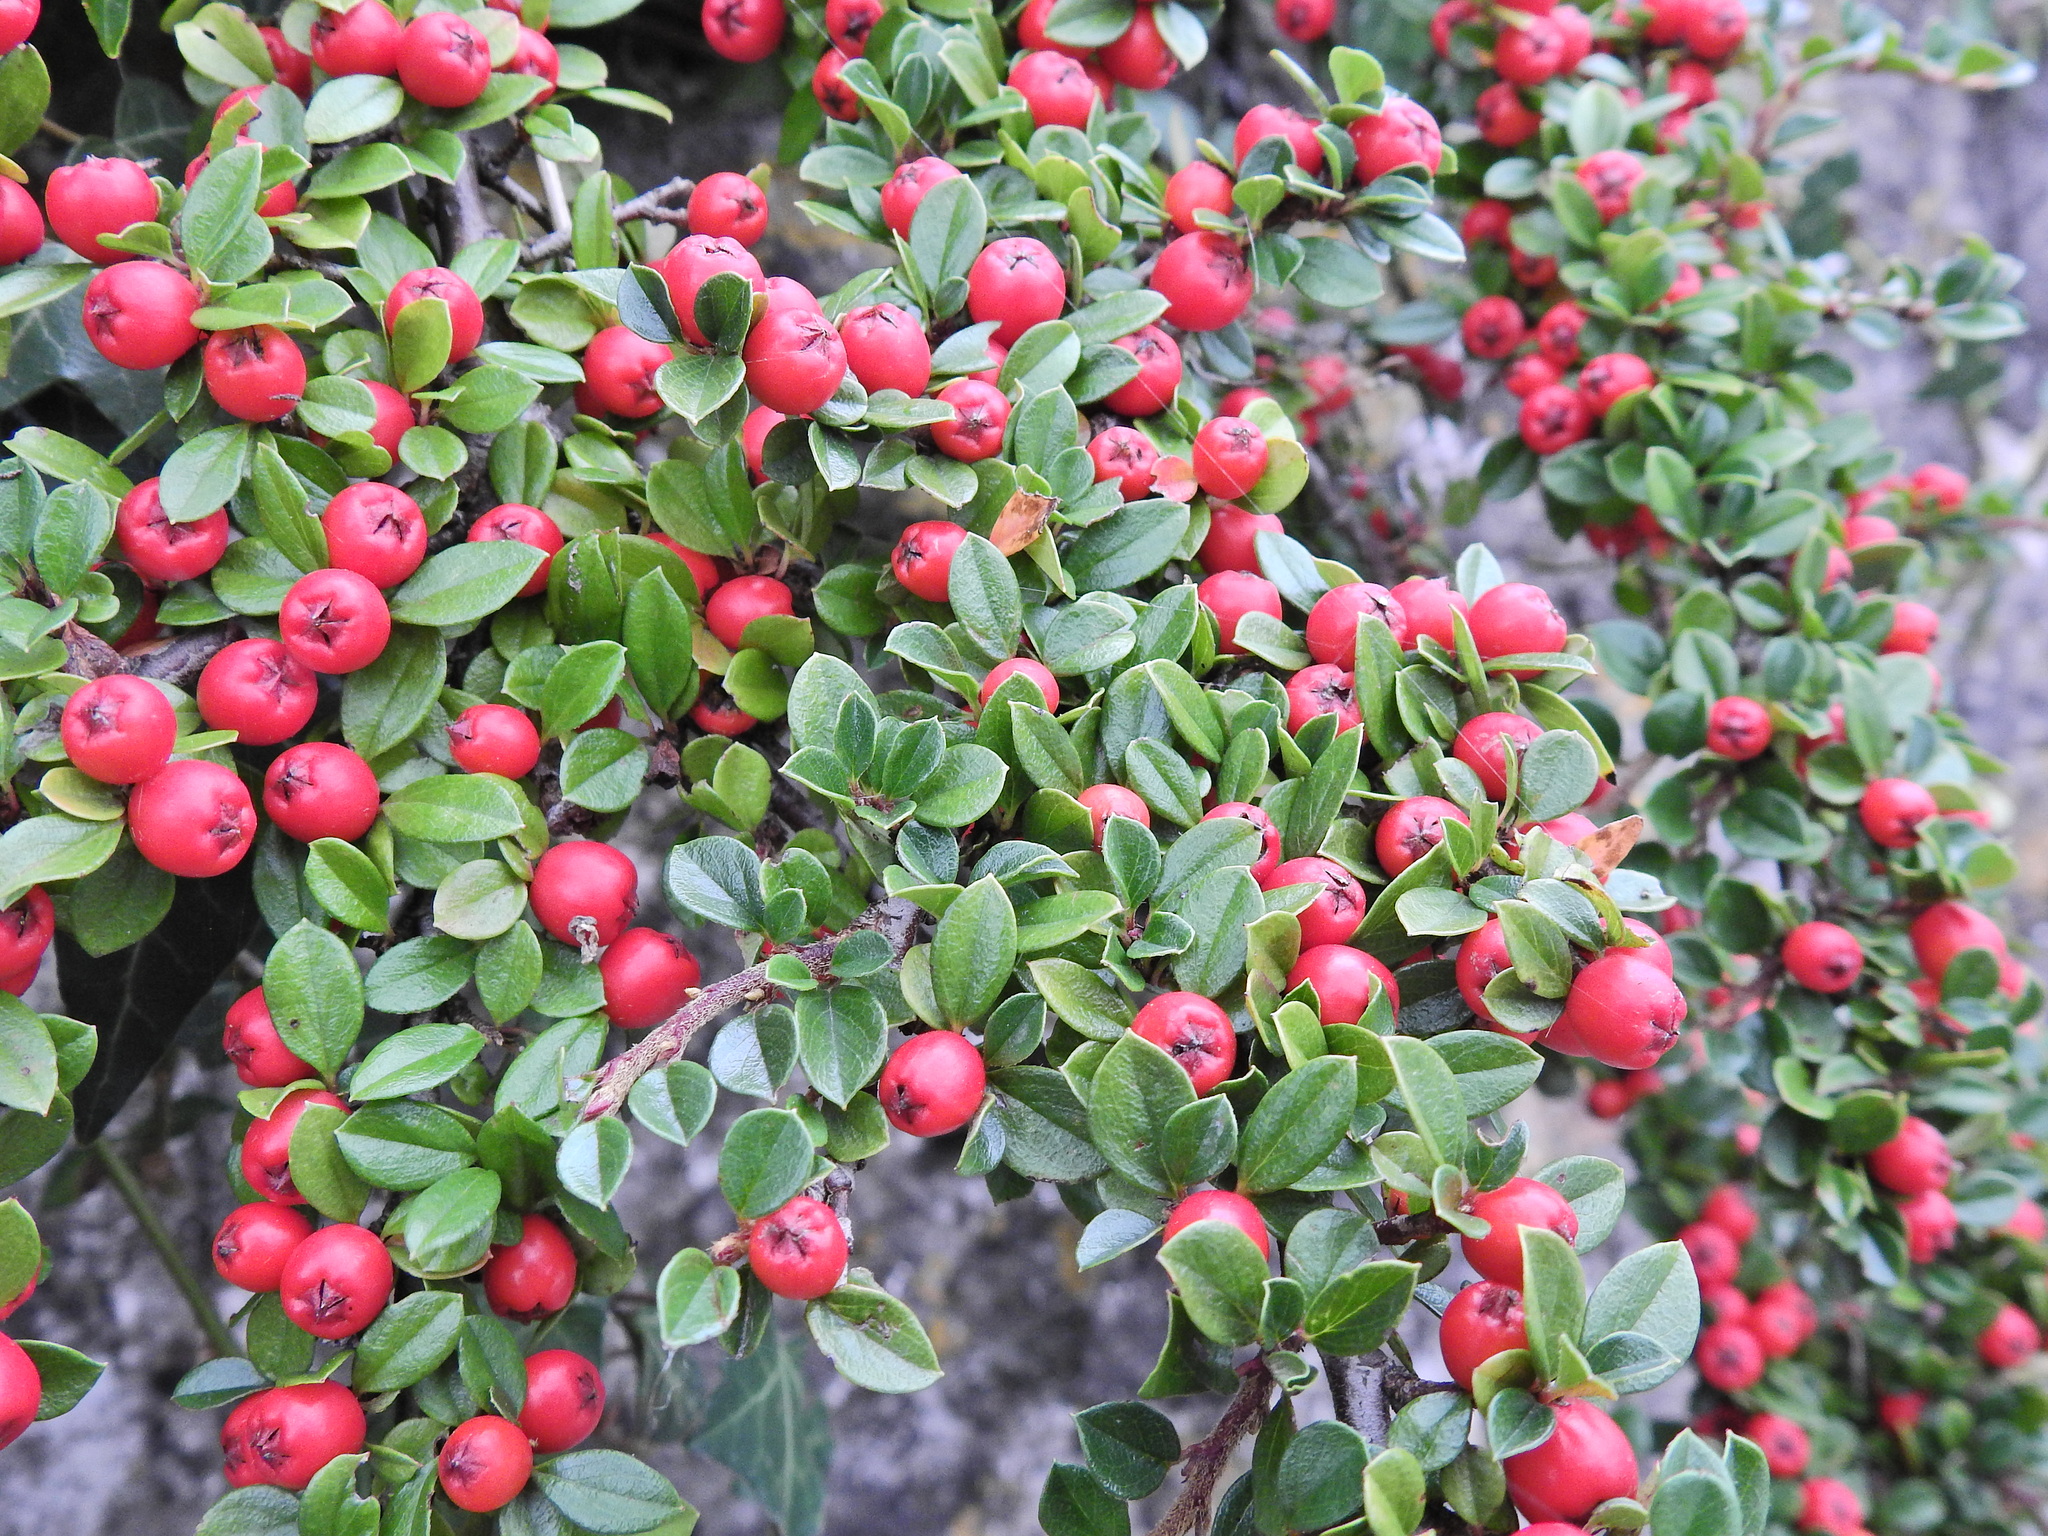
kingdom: Plantae
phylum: Tracheophyta
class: Magnoliopsida
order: Rosales
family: Rosaceae
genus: Cotoneaster
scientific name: Cotoneaster horizontalis
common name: Wall cotoneaster
